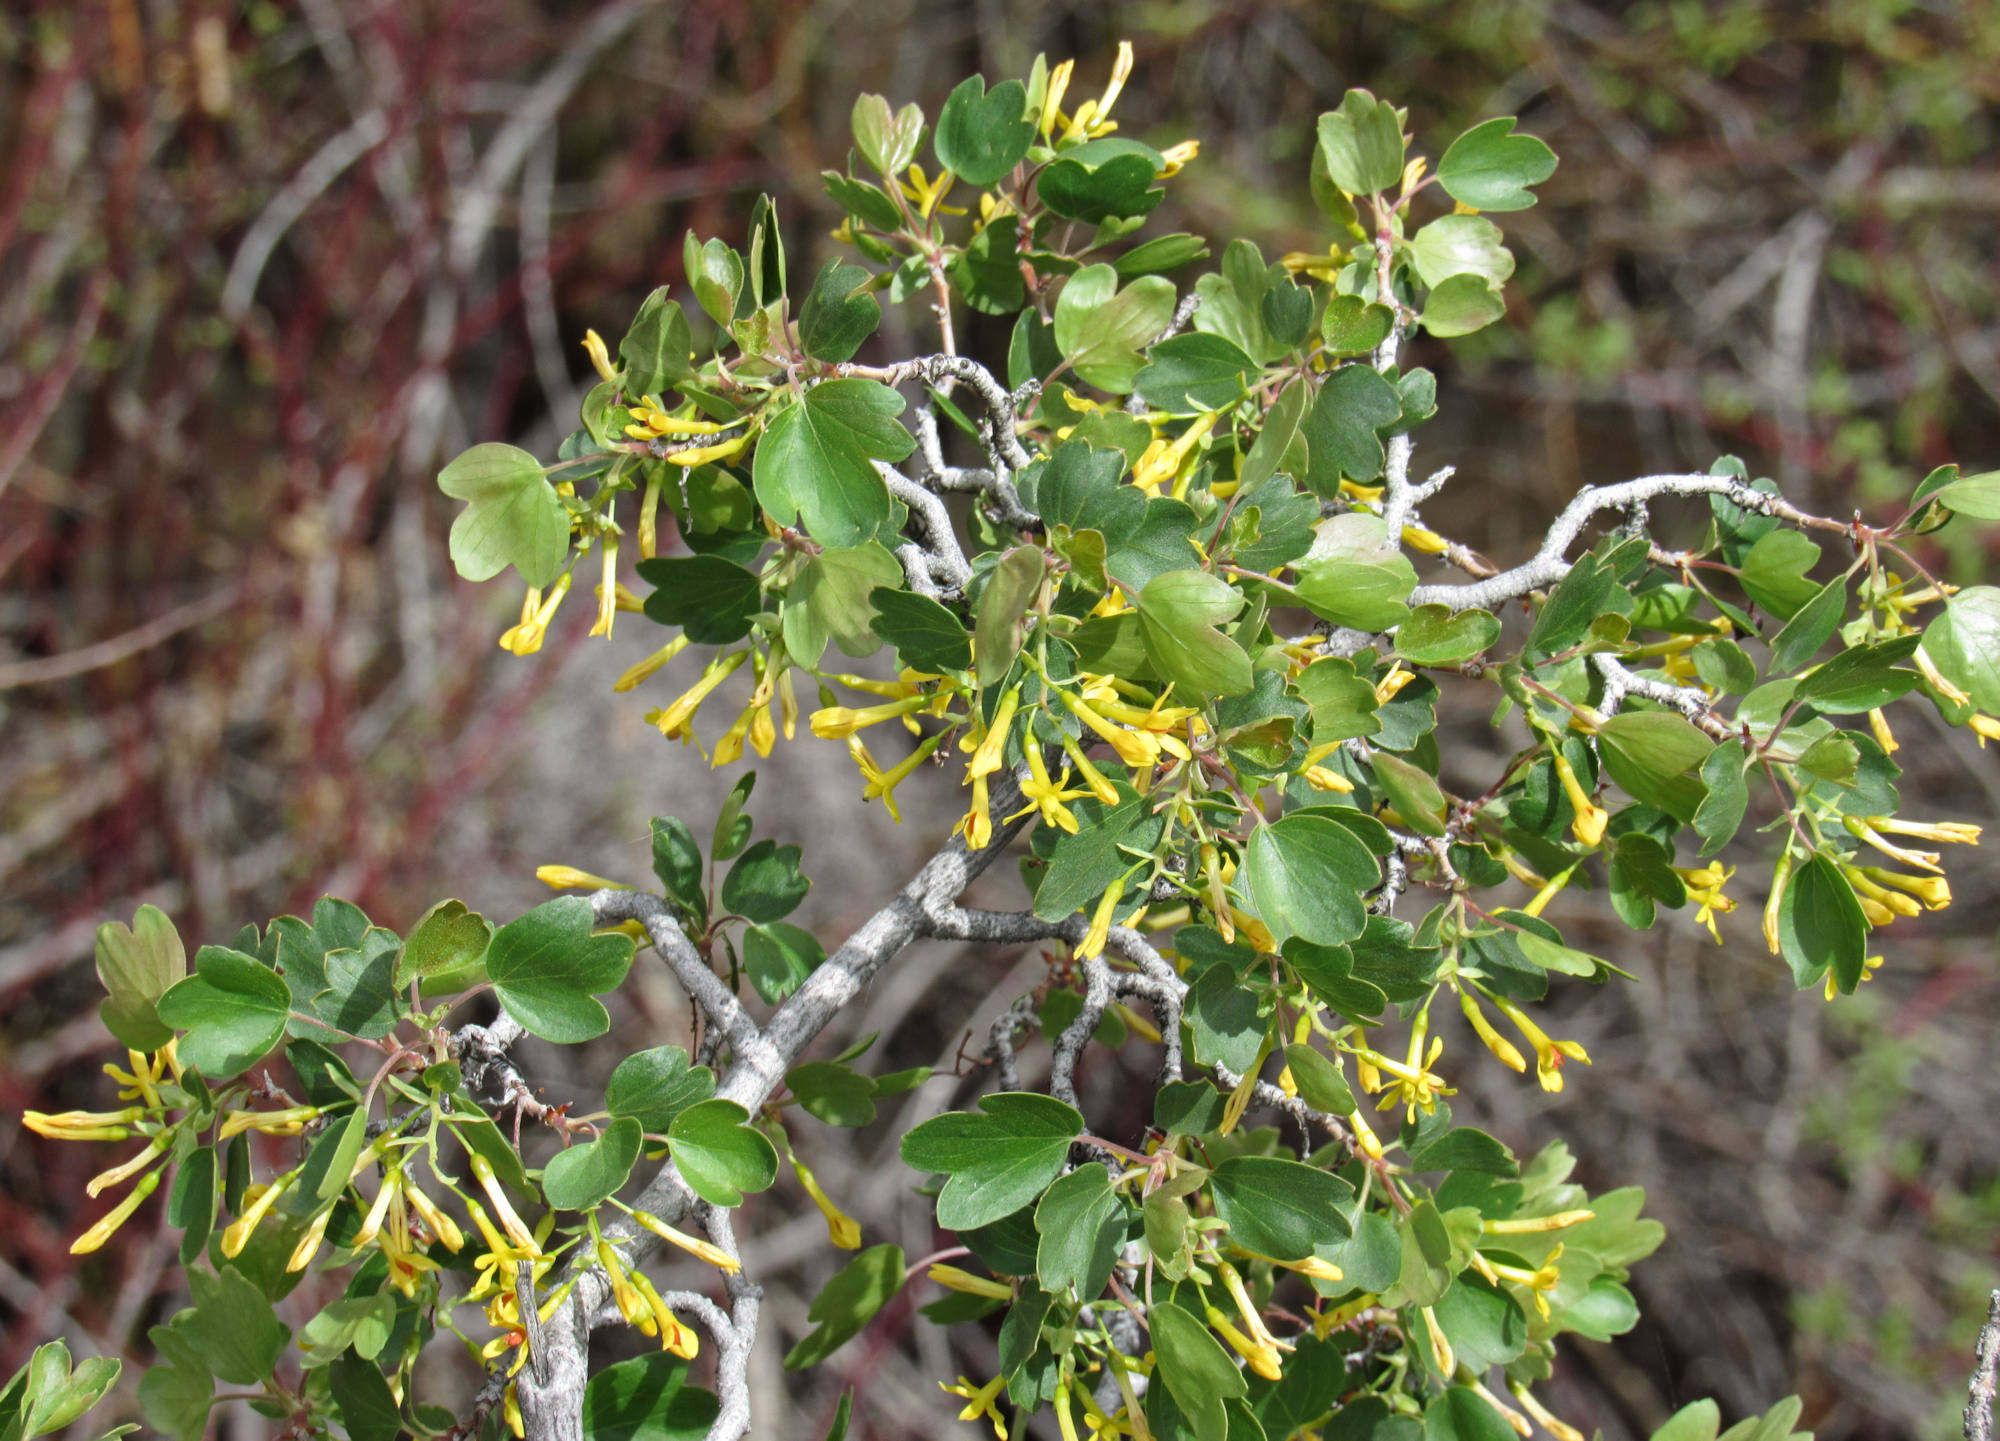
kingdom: Plantae
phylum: Tracheophyta
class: Magnoliopsida
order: Saxifragales
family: Grossulariaceae
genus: Ribes
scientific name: Ribes aureum
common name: Golden currant
